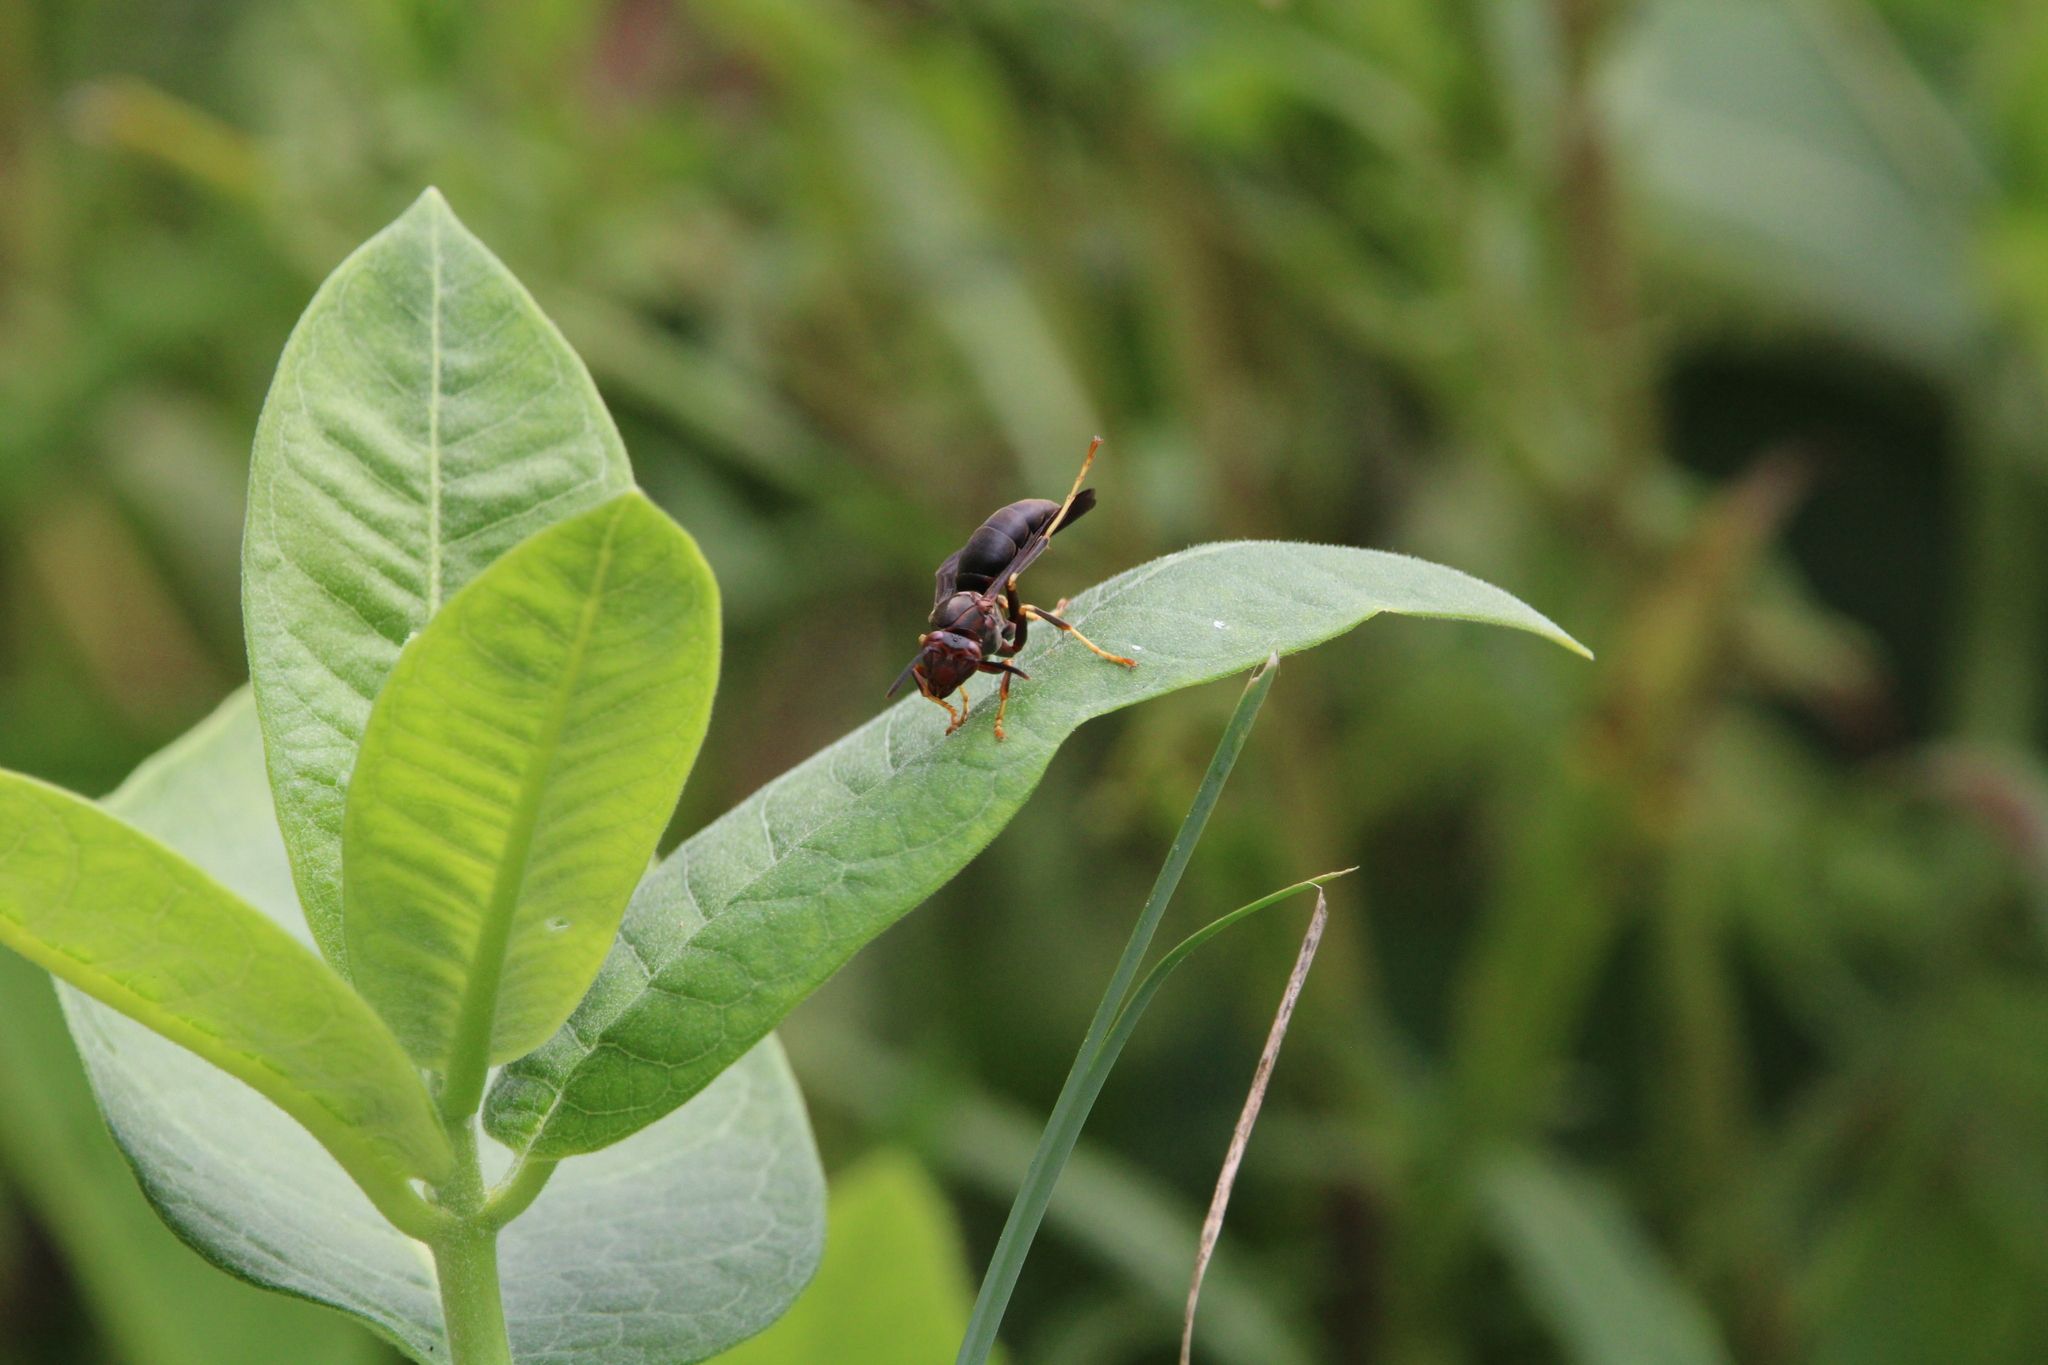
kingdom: Animalia
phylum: Arthropoda
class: Insecta
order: Hymenoptera
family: Eumenidae
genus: Polistes
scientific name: Polistes metricus
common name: Metric paper wasp
